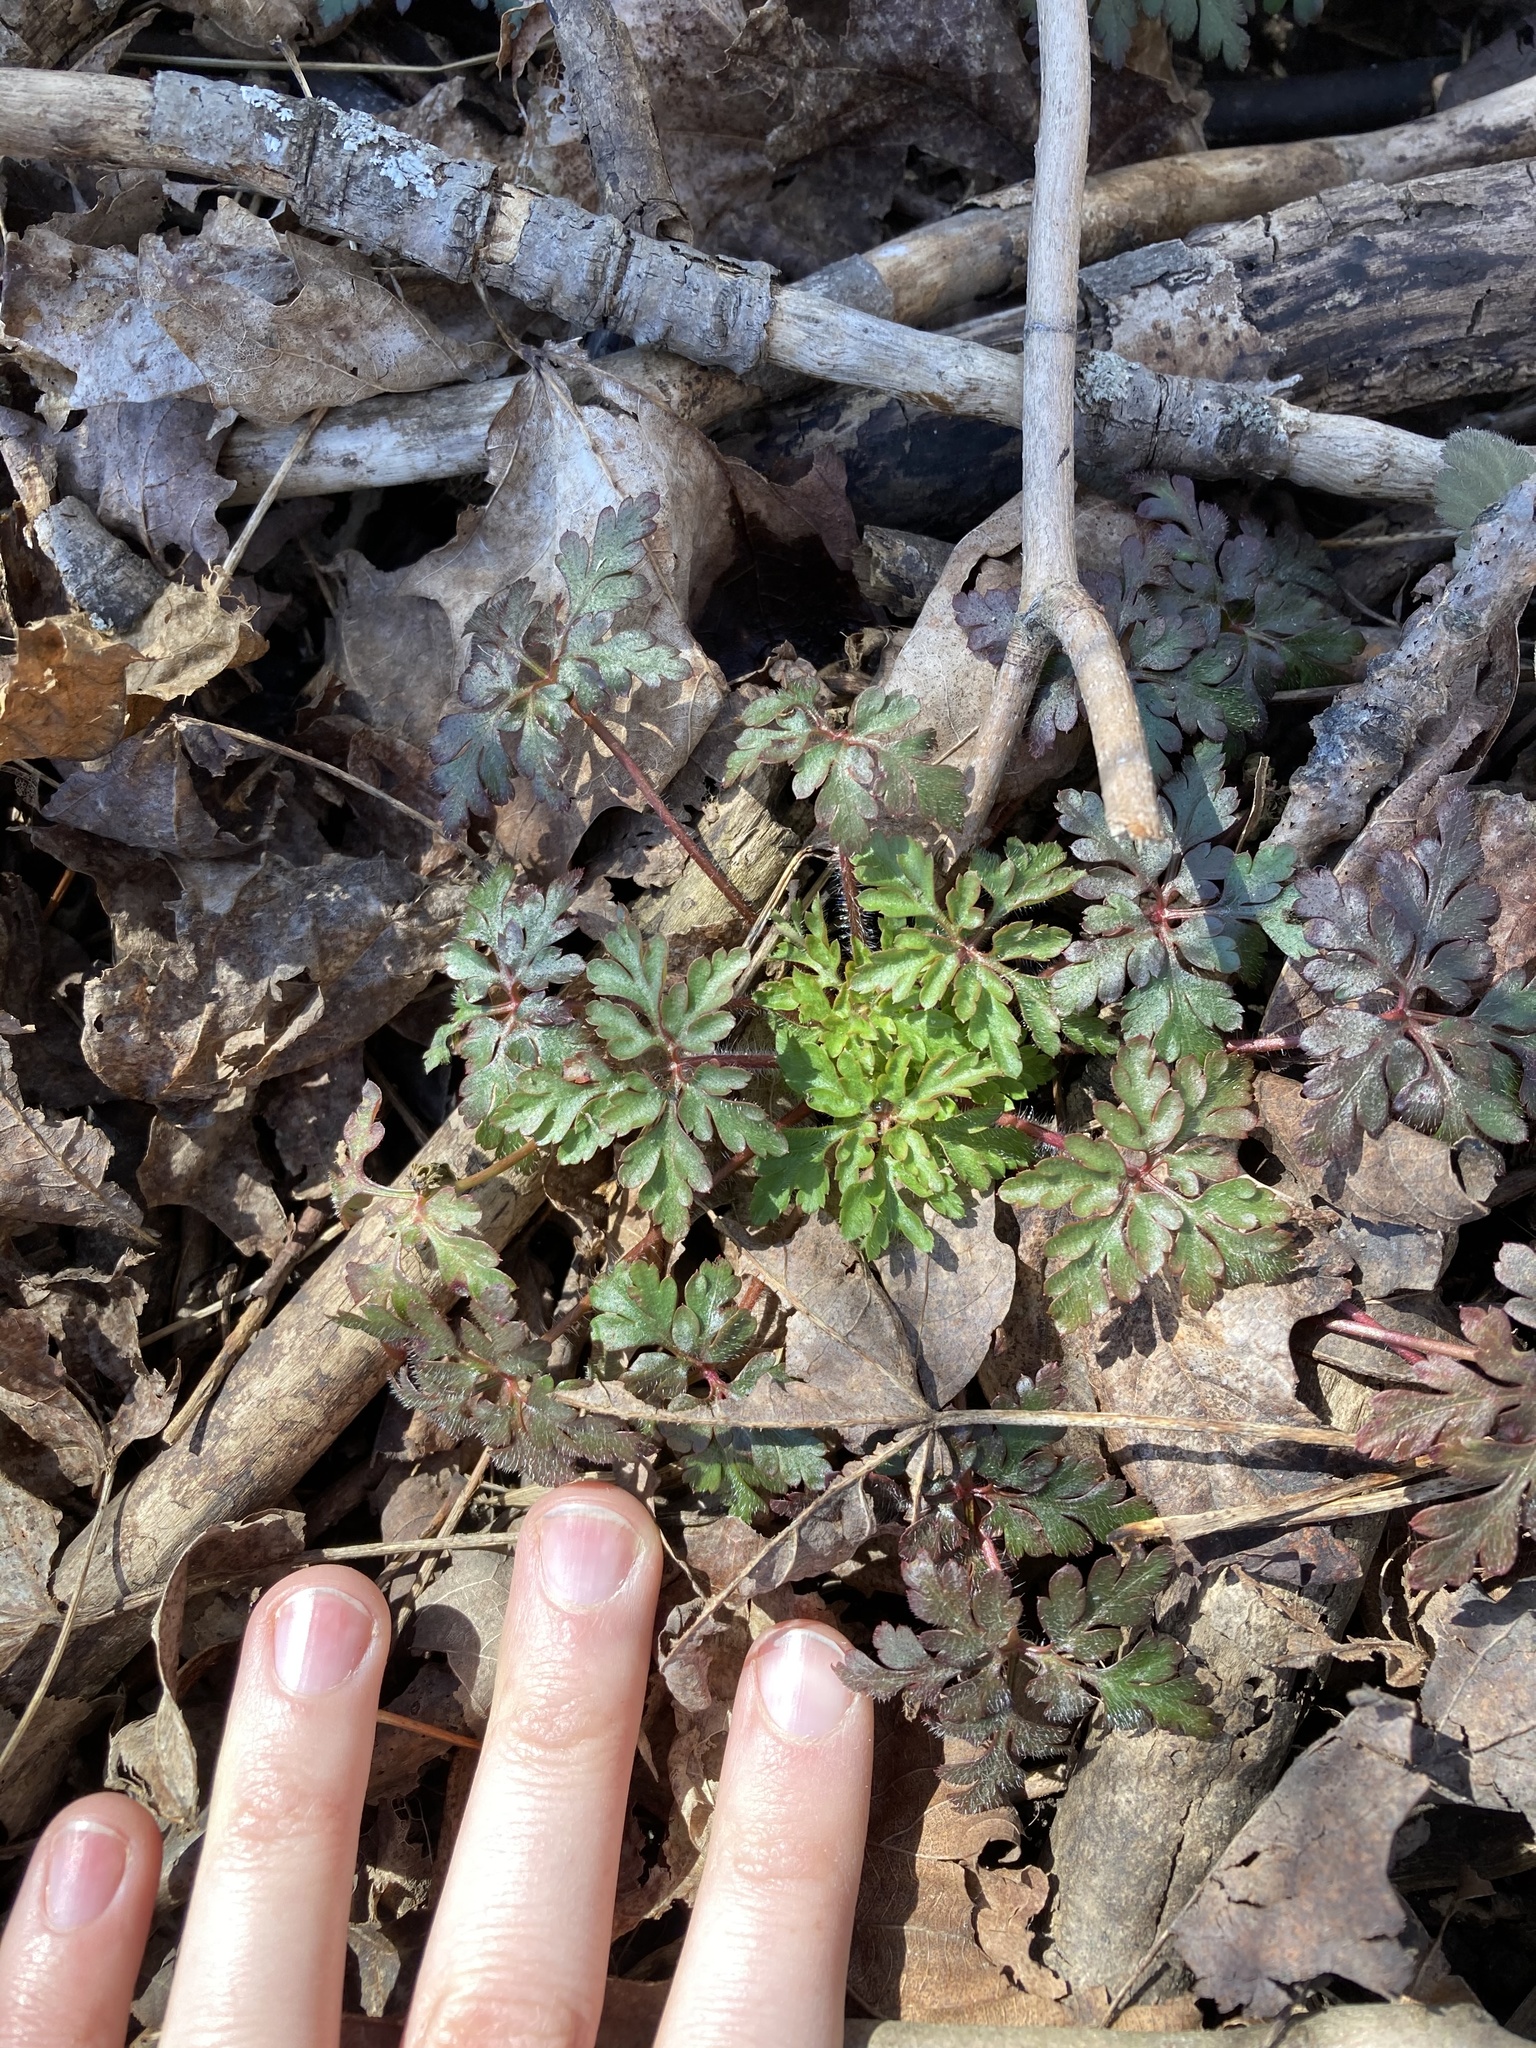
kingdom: Plantae
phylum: Tracheophyta
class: Magnoliopsida
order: Geraniales
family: Geraniaceae
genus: Geranium
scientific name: Geranium robertianum
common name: Herb-robert
